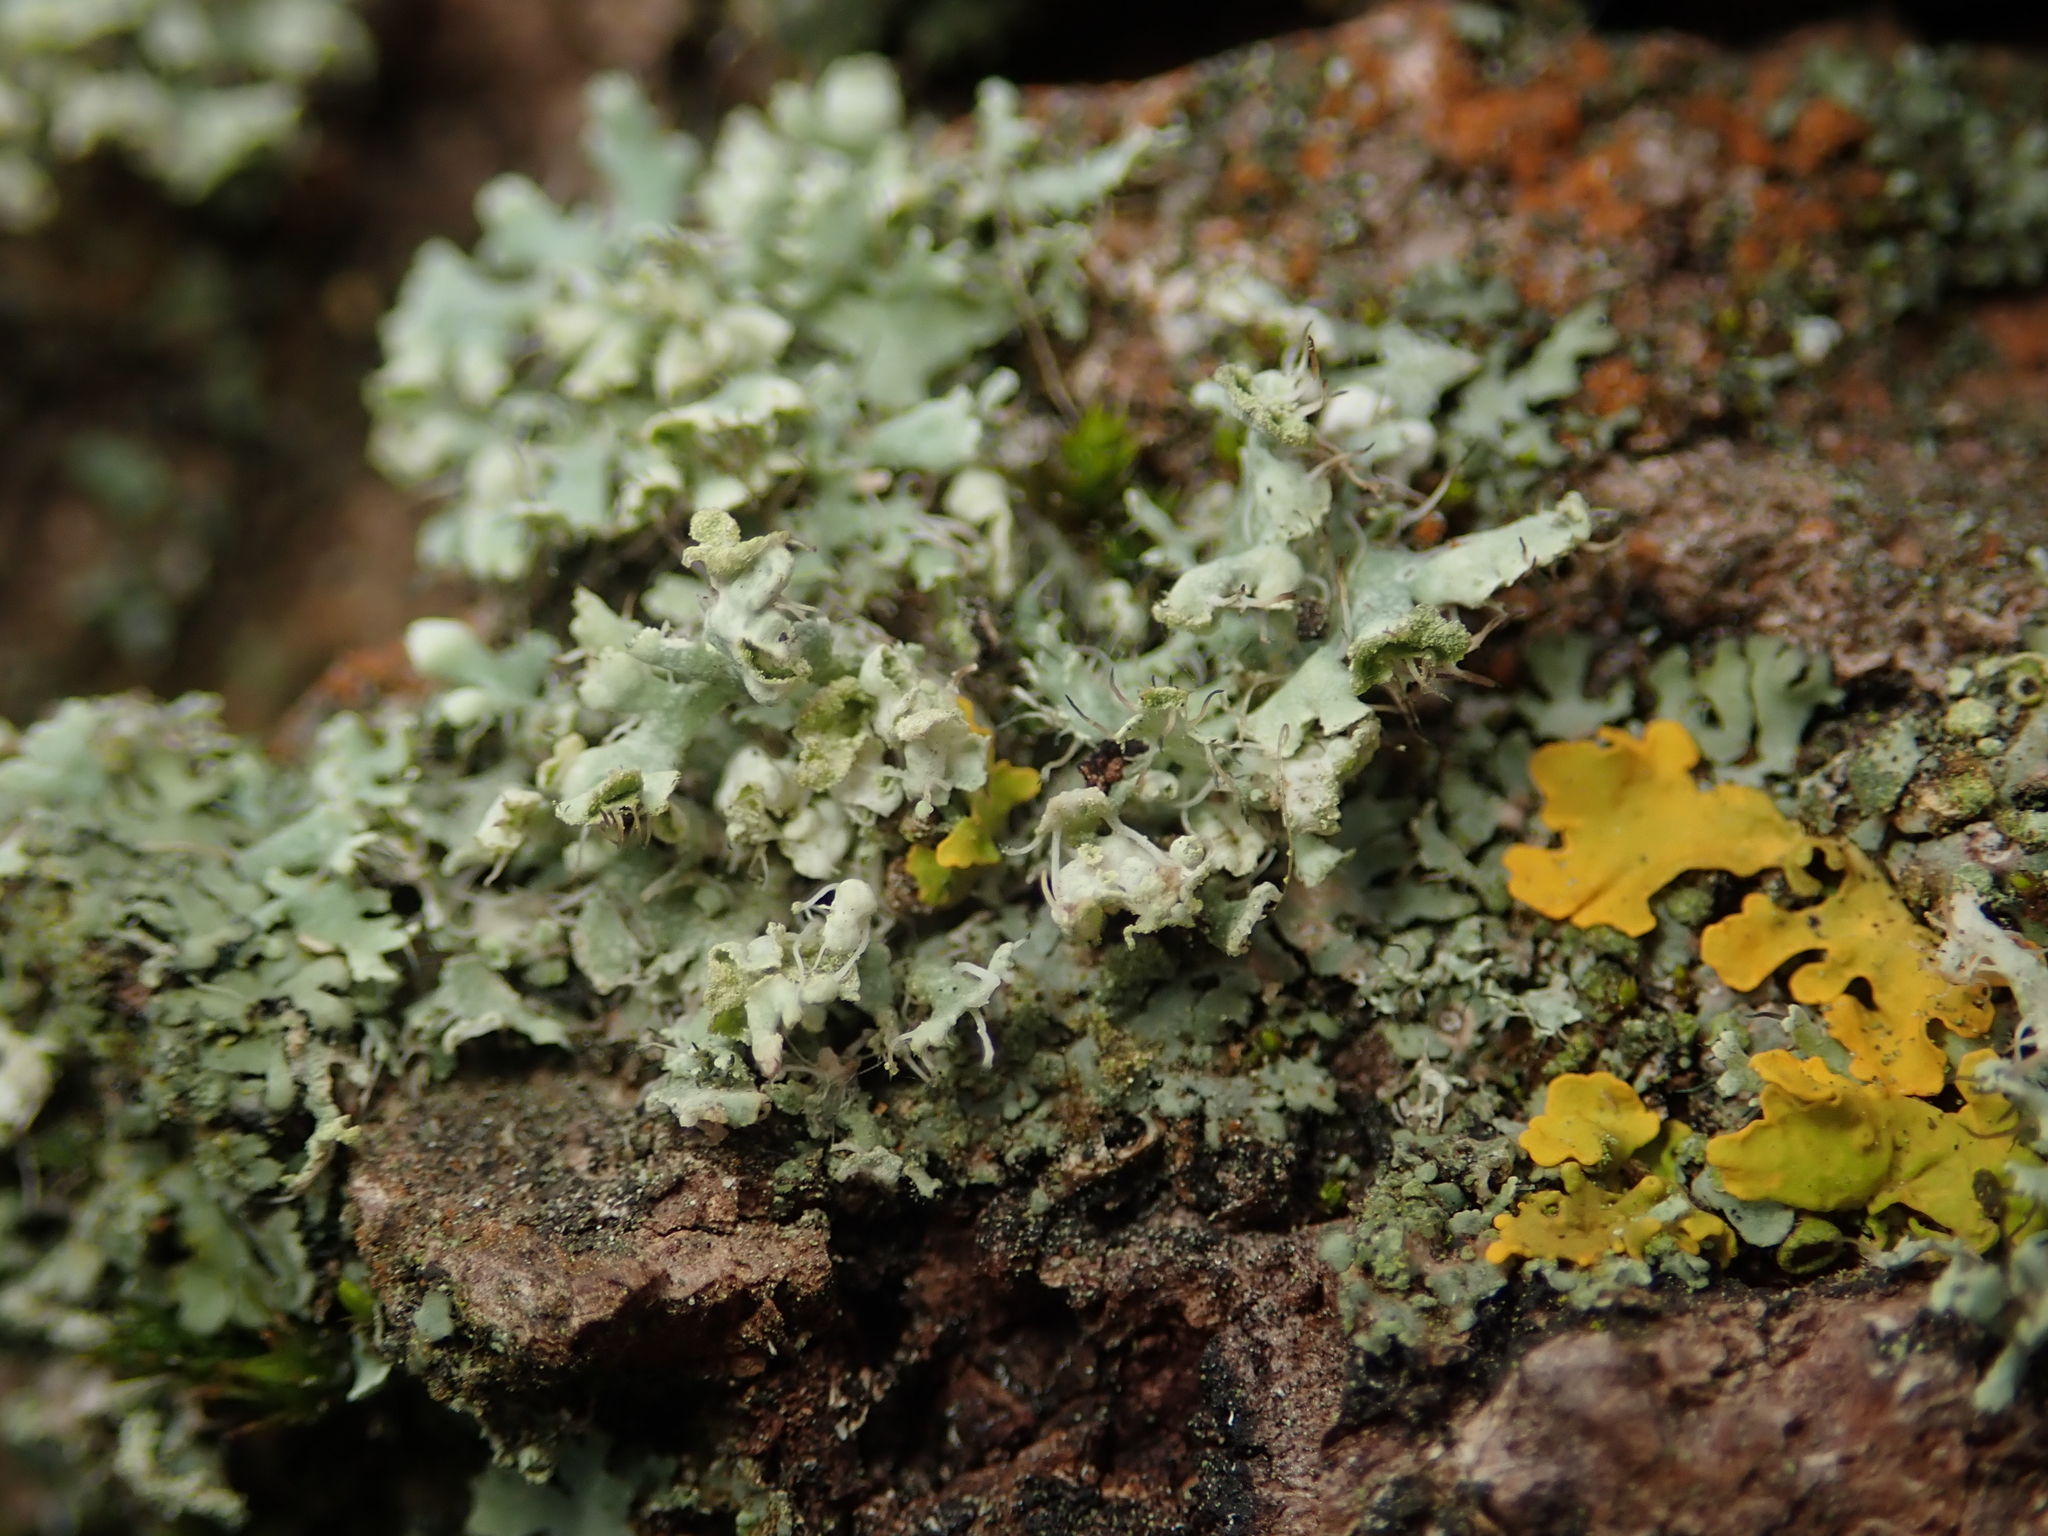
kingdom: Fungi
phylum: Ascomycota
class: Lecanoromycetes
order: Caliciales
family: Physciaceae
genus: Physcia
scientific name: Physcia adscendens
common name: Hooded rosette lichen
